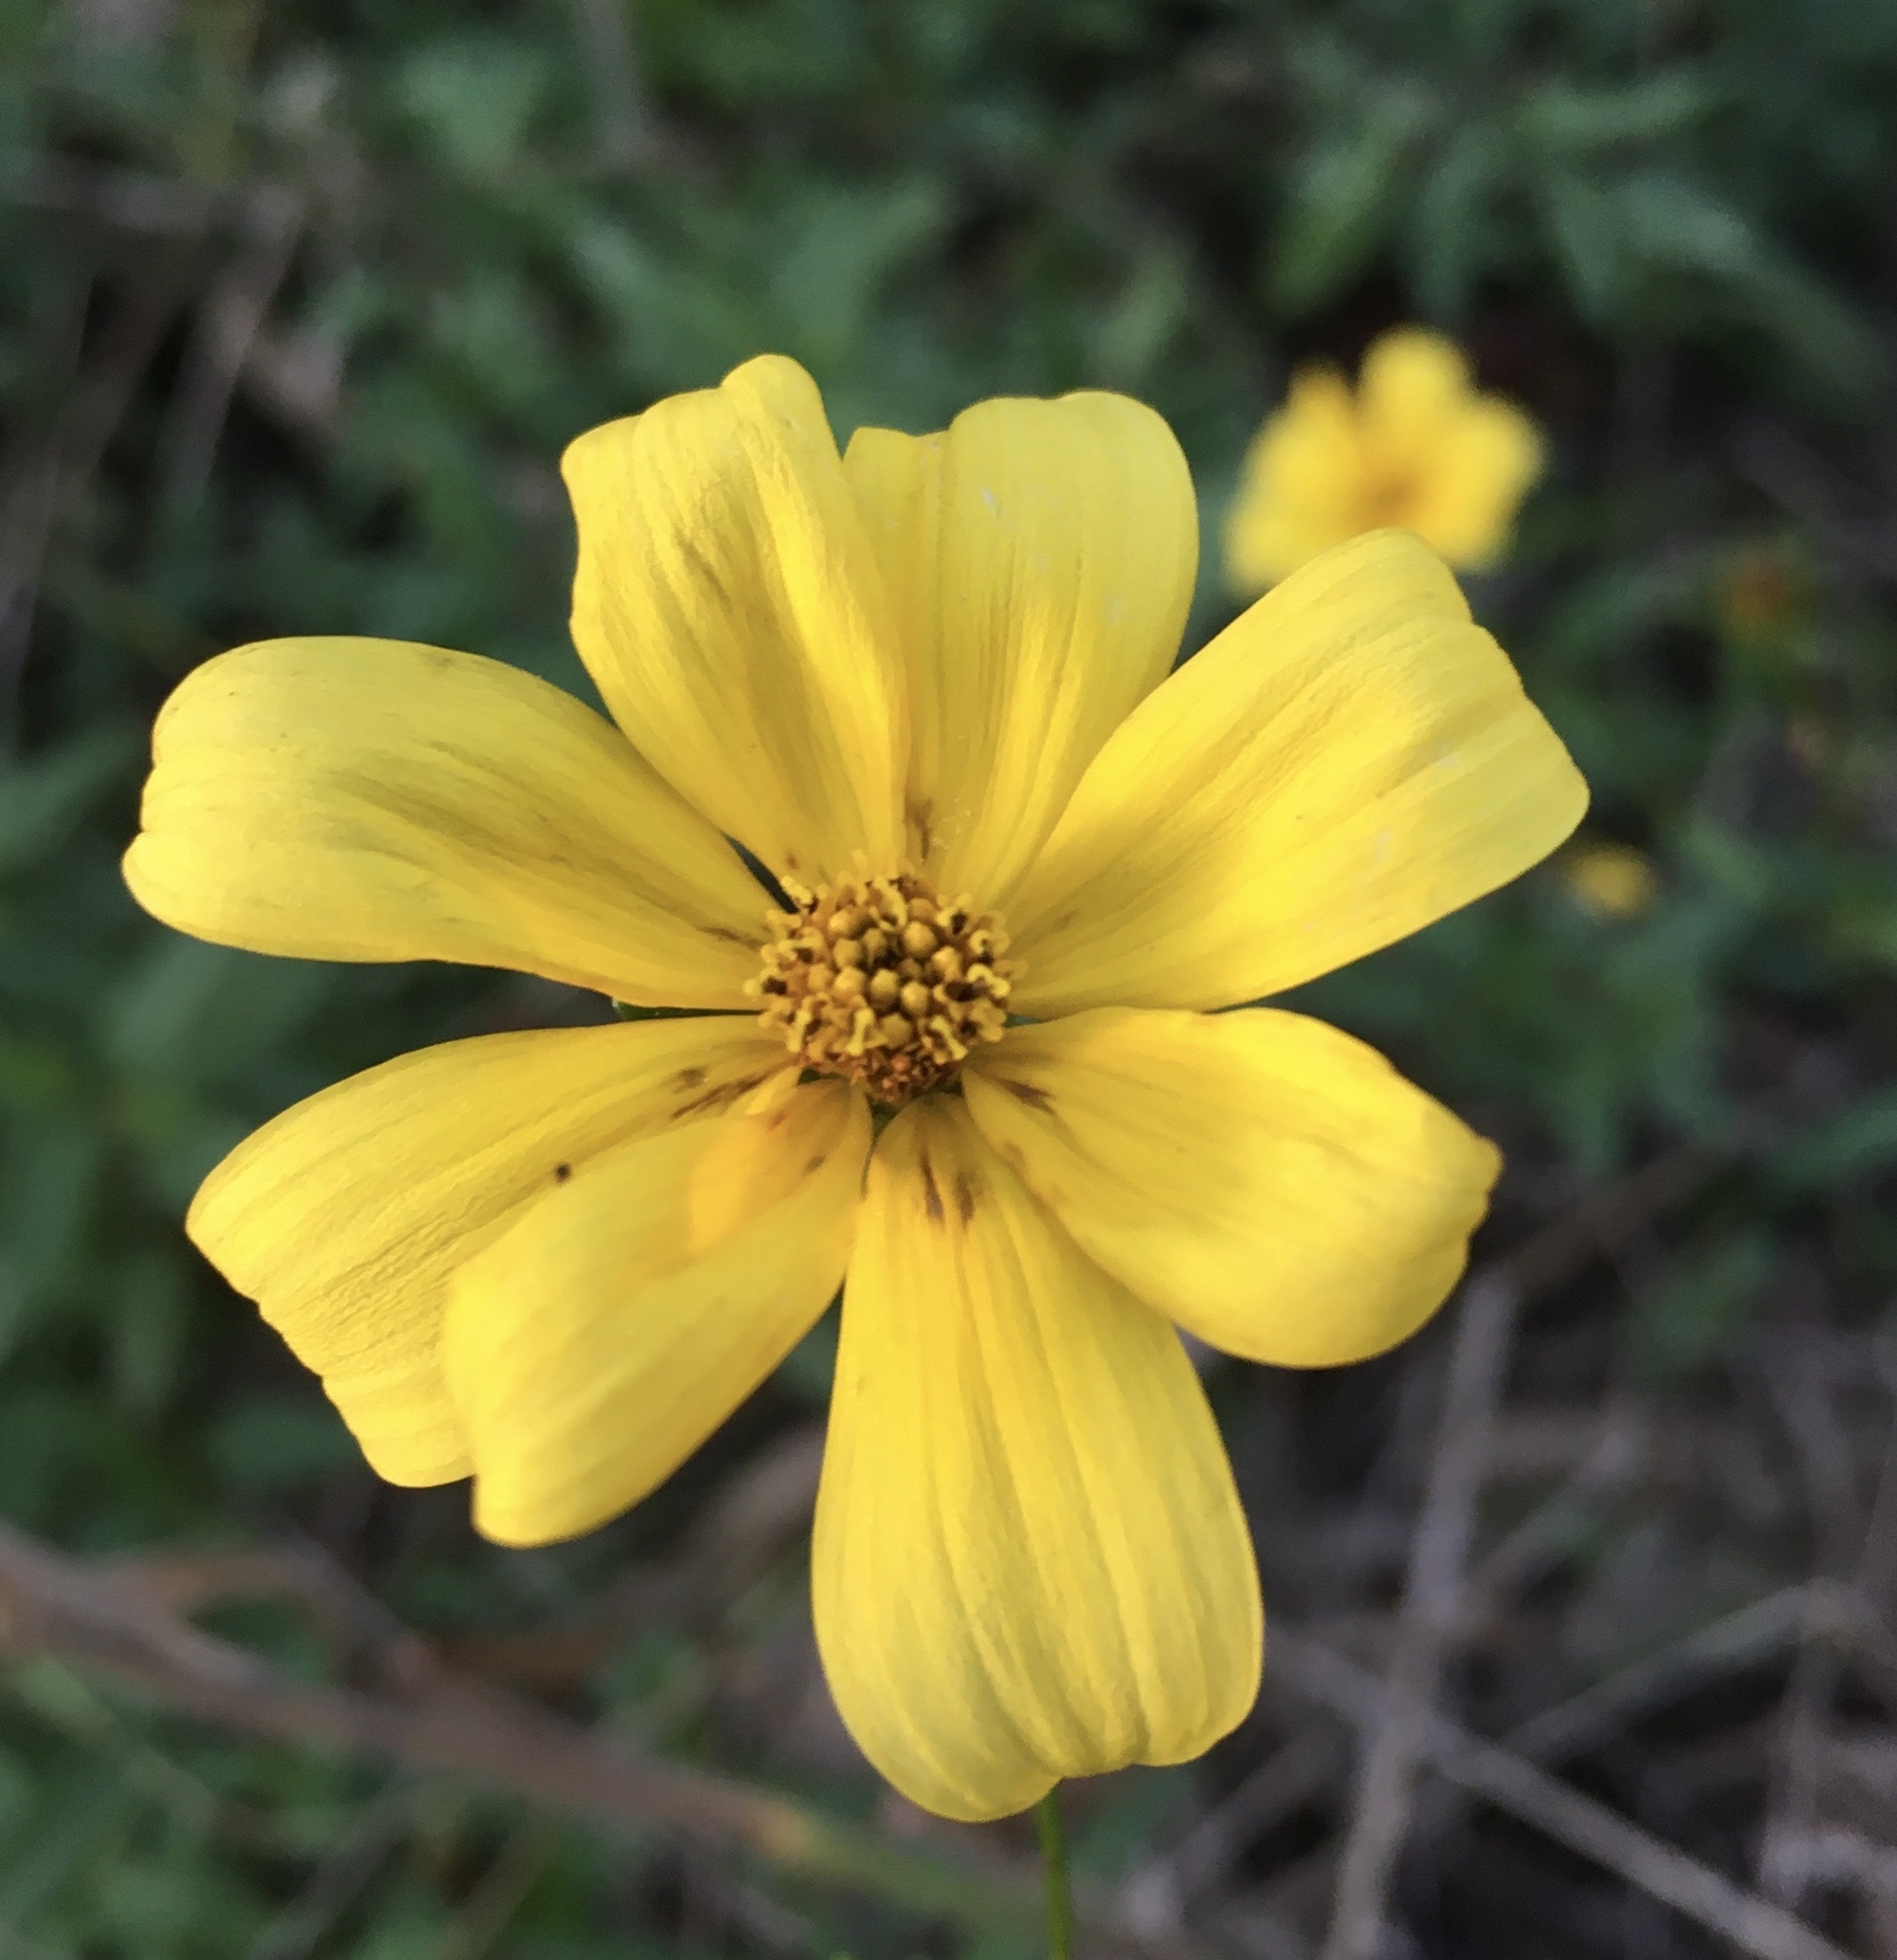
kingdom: Plantae
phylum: Tracheophyta
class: Magnoliopsida
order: Asterales
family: Asteraceae
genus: Bidens
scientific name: Bidens mitis
